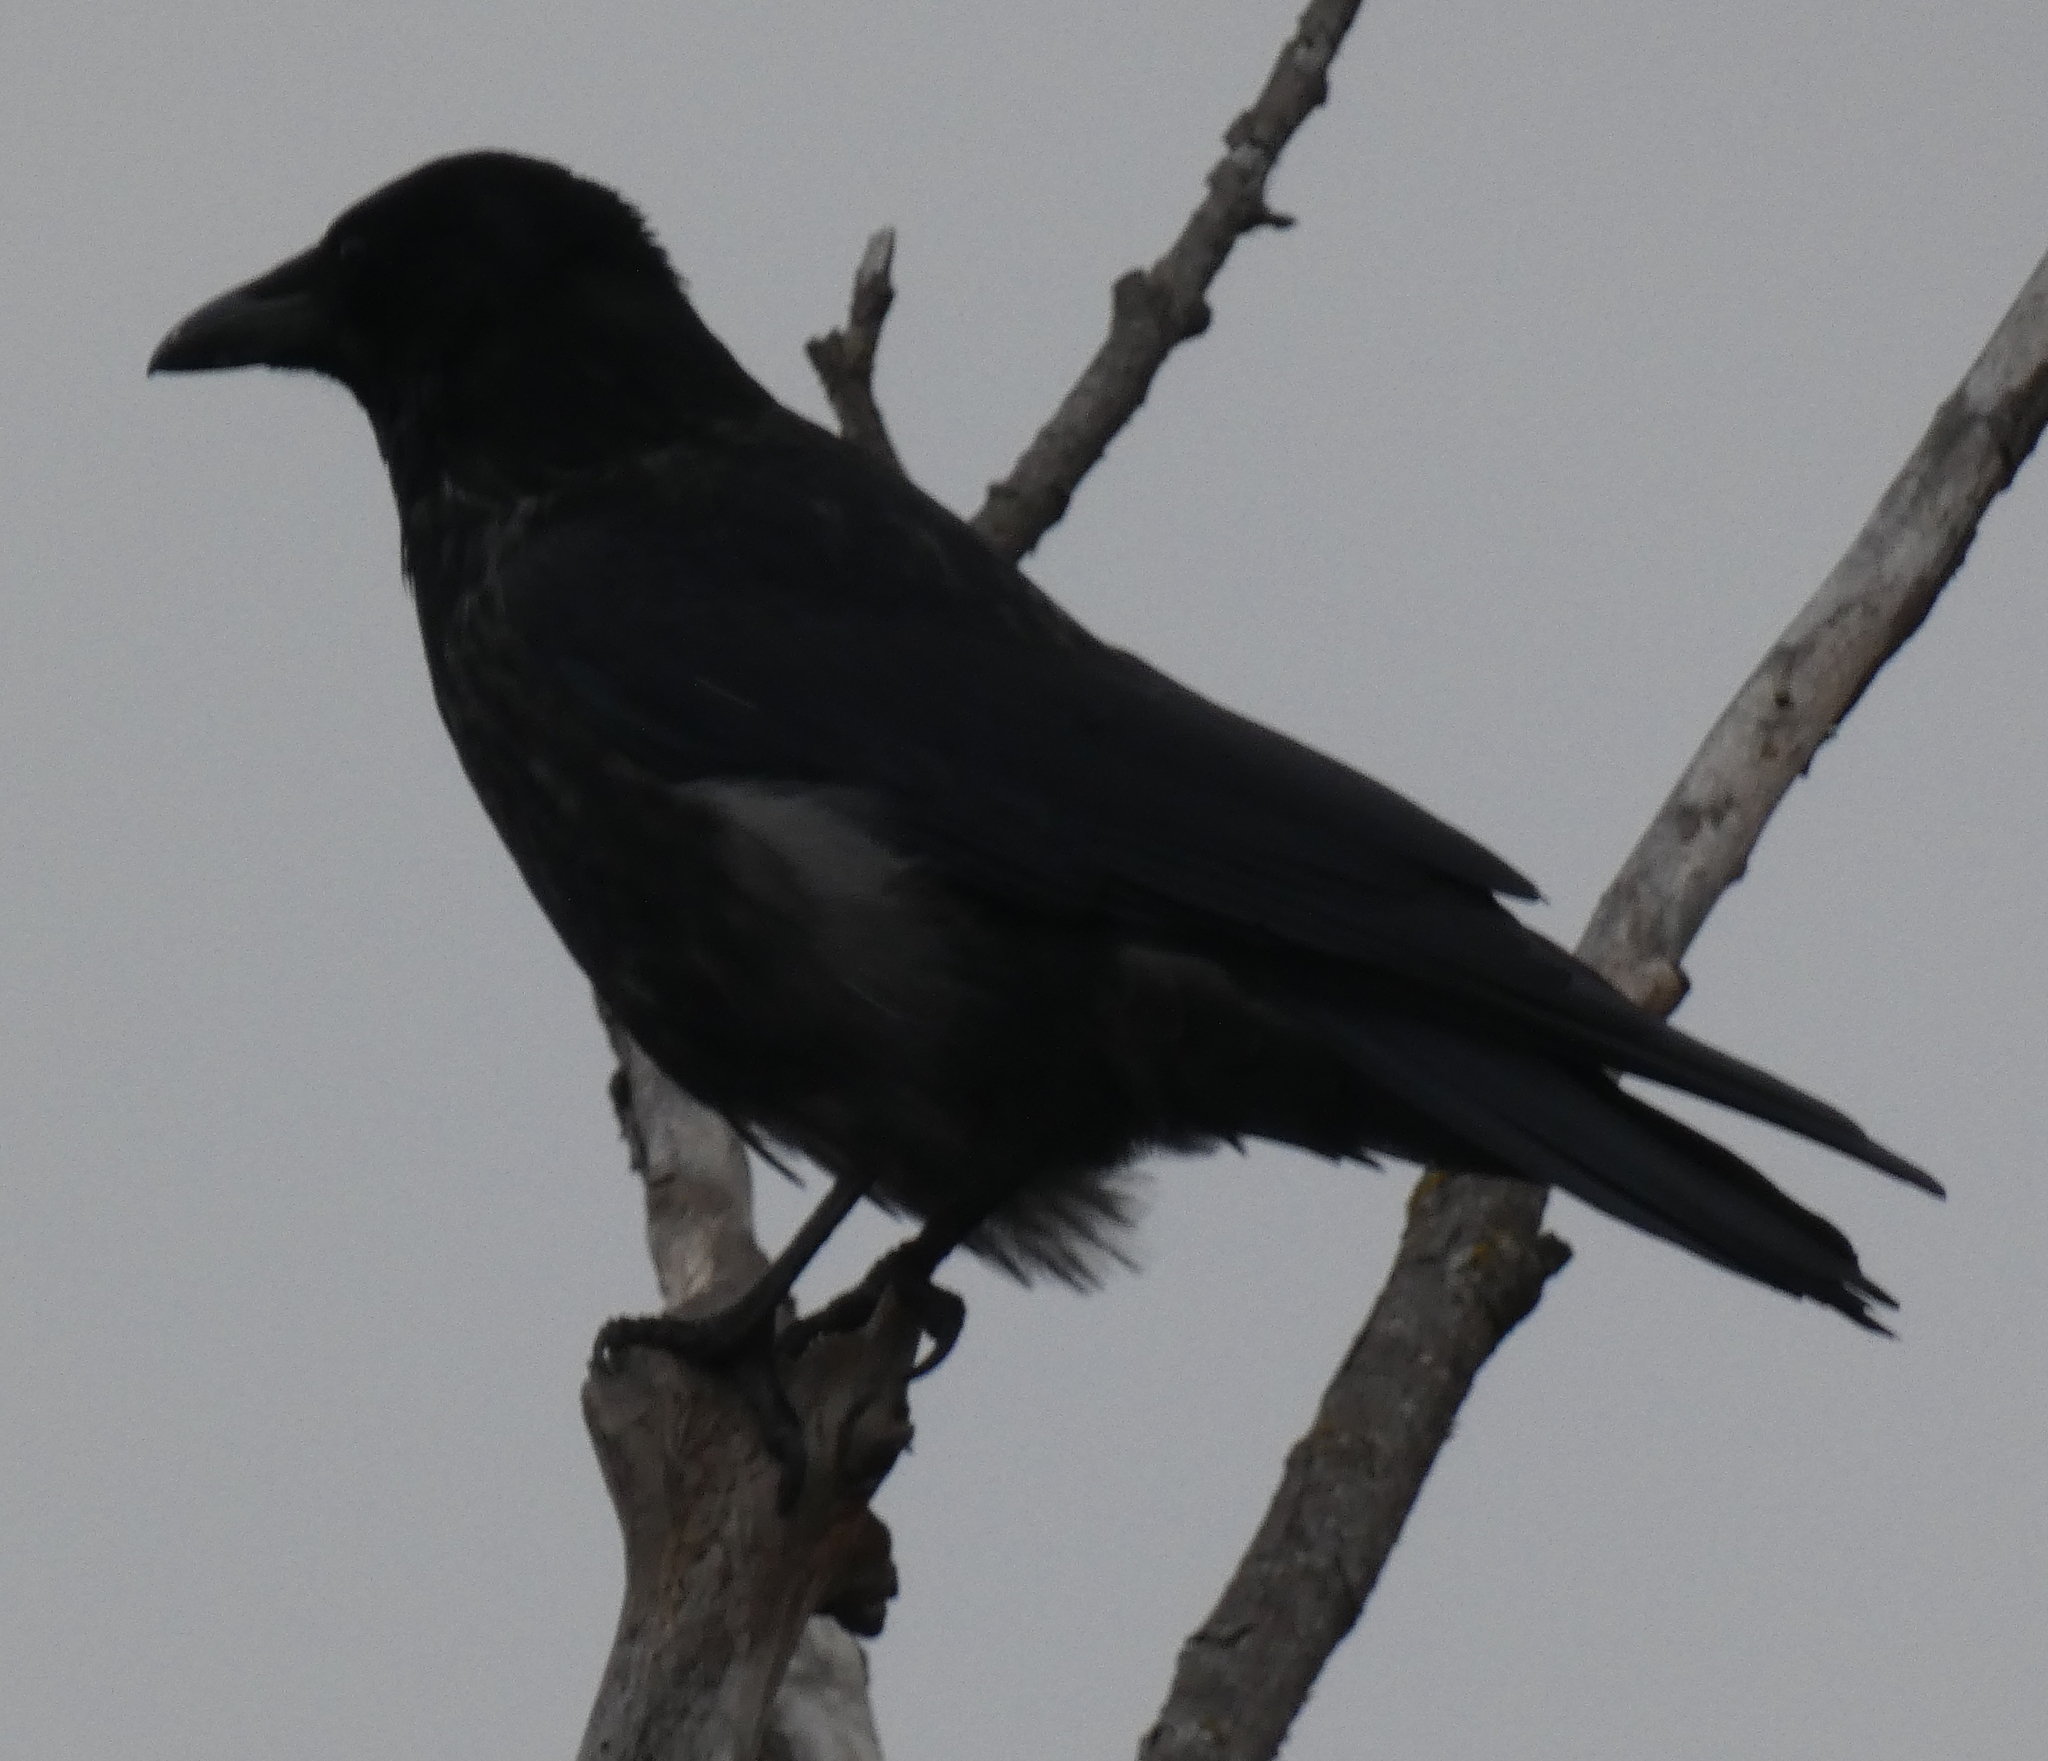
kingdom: Animalia
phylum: Chordata
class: Aves
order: Passeriformes
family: Corvidae
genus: Corvus
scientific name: Corvus
